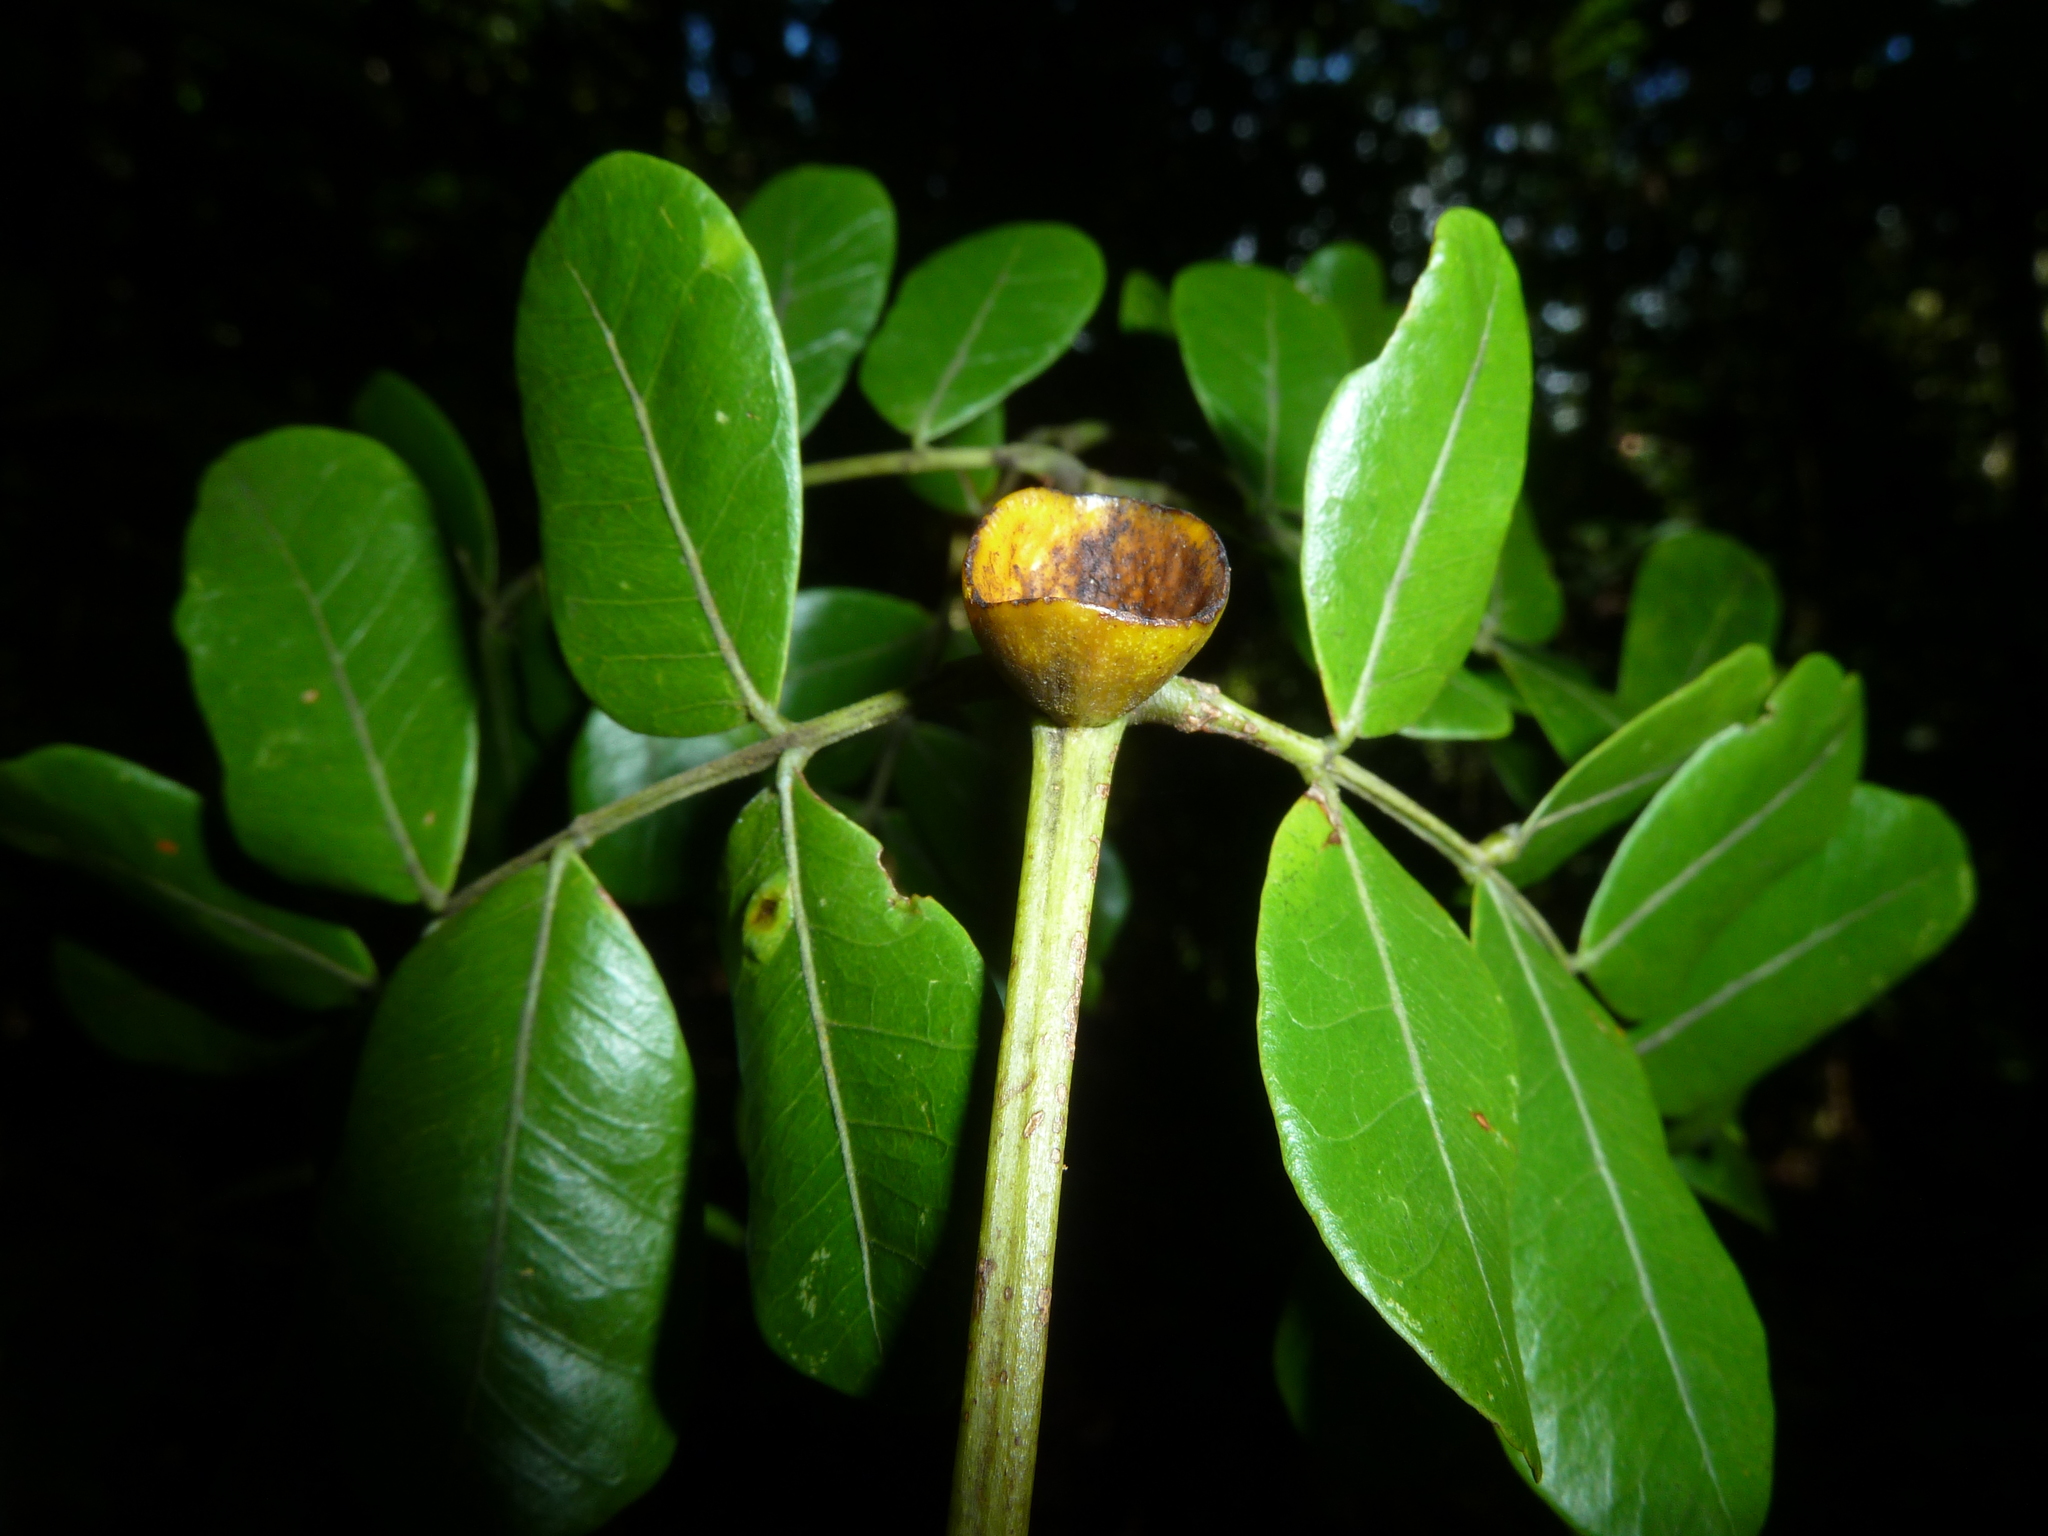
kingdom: Plantae
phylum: Tracheophyta
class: Magnoliopsida
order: Fabales
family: Fabaceae
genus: Jupunba
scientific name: Jupunba adenophora
